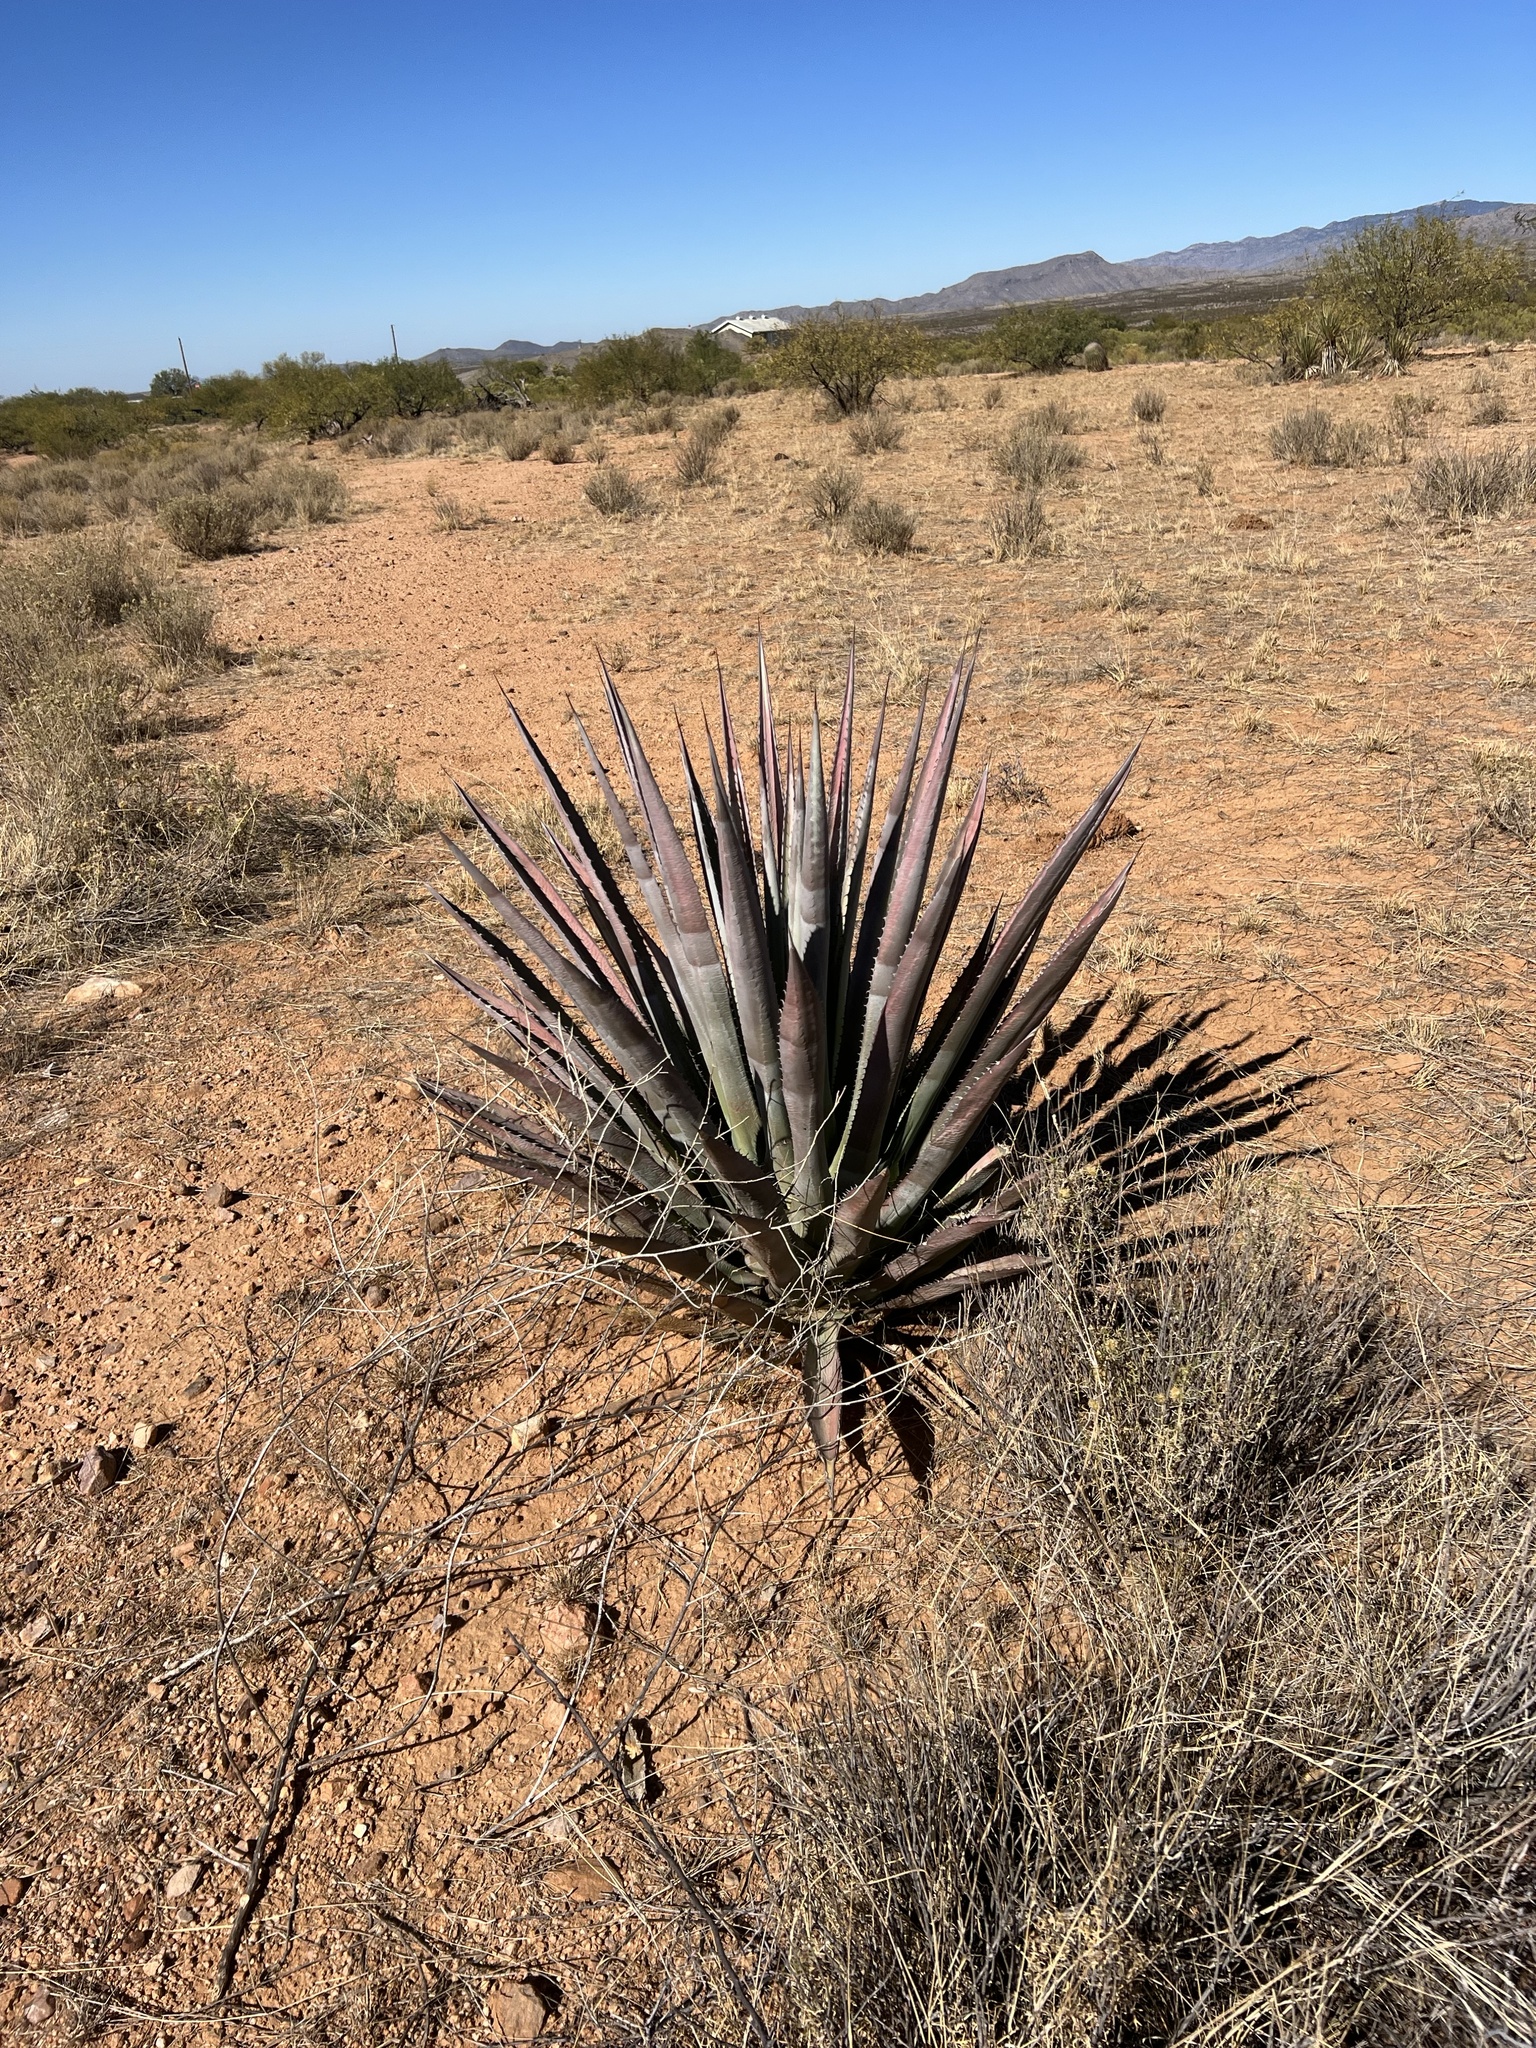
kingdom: Plantae
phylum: Tracheophyta
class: Liliopsida
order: Asparagales
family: Asparagaceae
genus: Agave
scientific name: Agave palmeri
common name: Palmer agave
